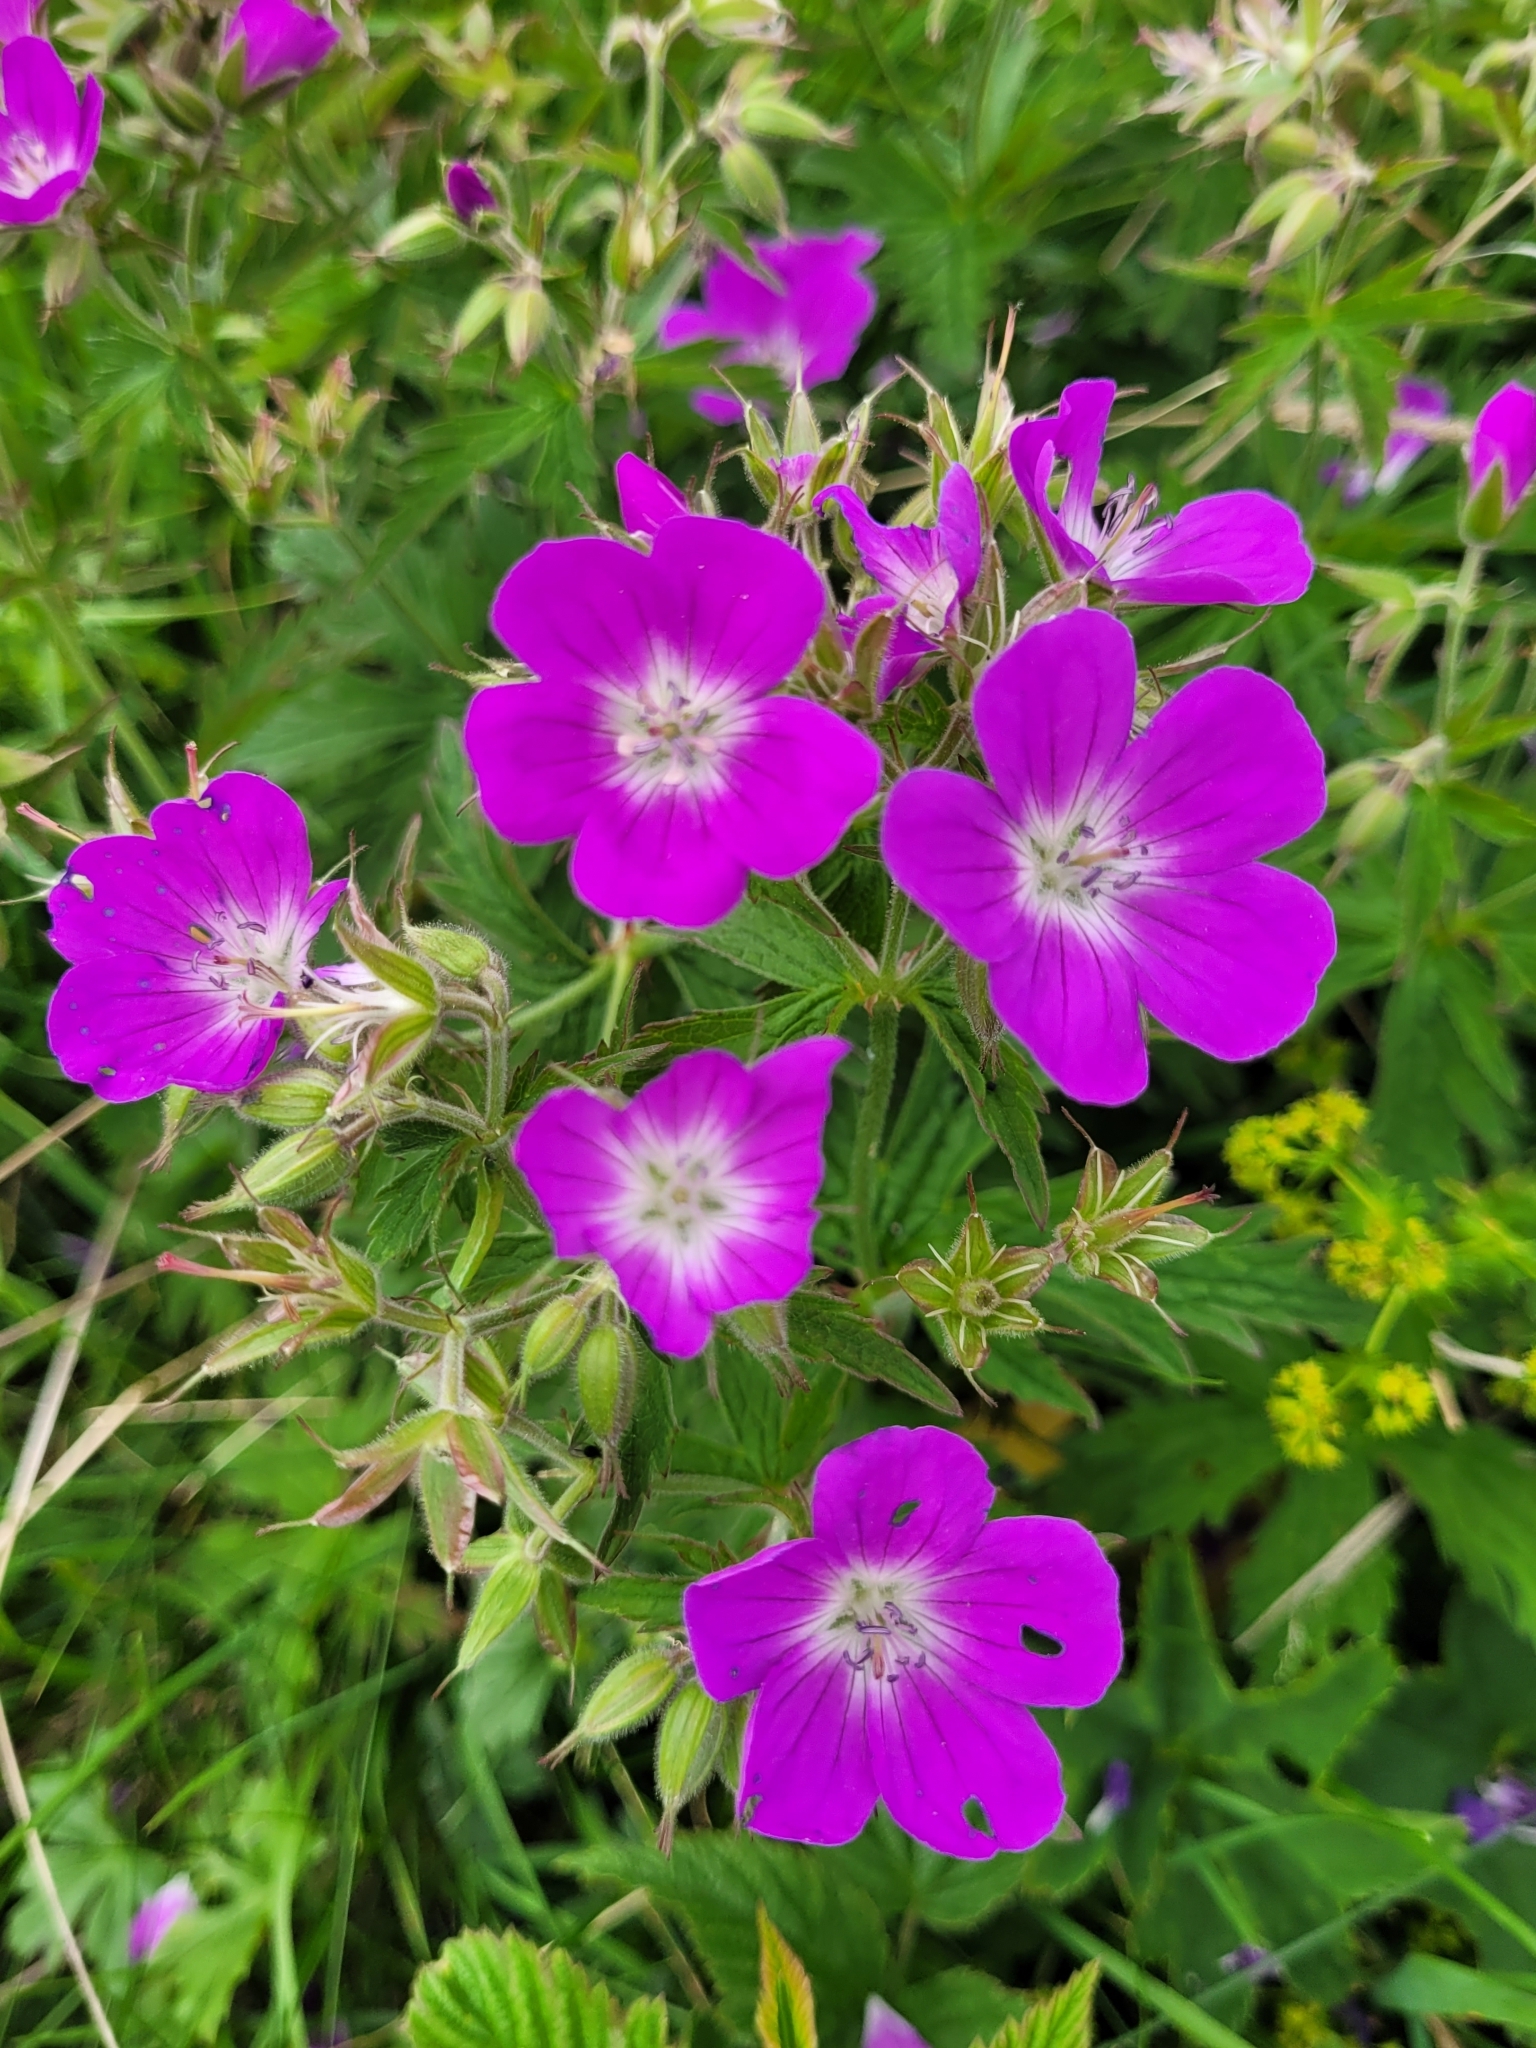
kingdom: Plantae
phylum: Tracheophyta
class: Magnoliopsida
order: Geraniales
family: Geraniaceae
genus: Geranium
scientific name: Geranium sylvaticum
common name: Wood crane's-bill
